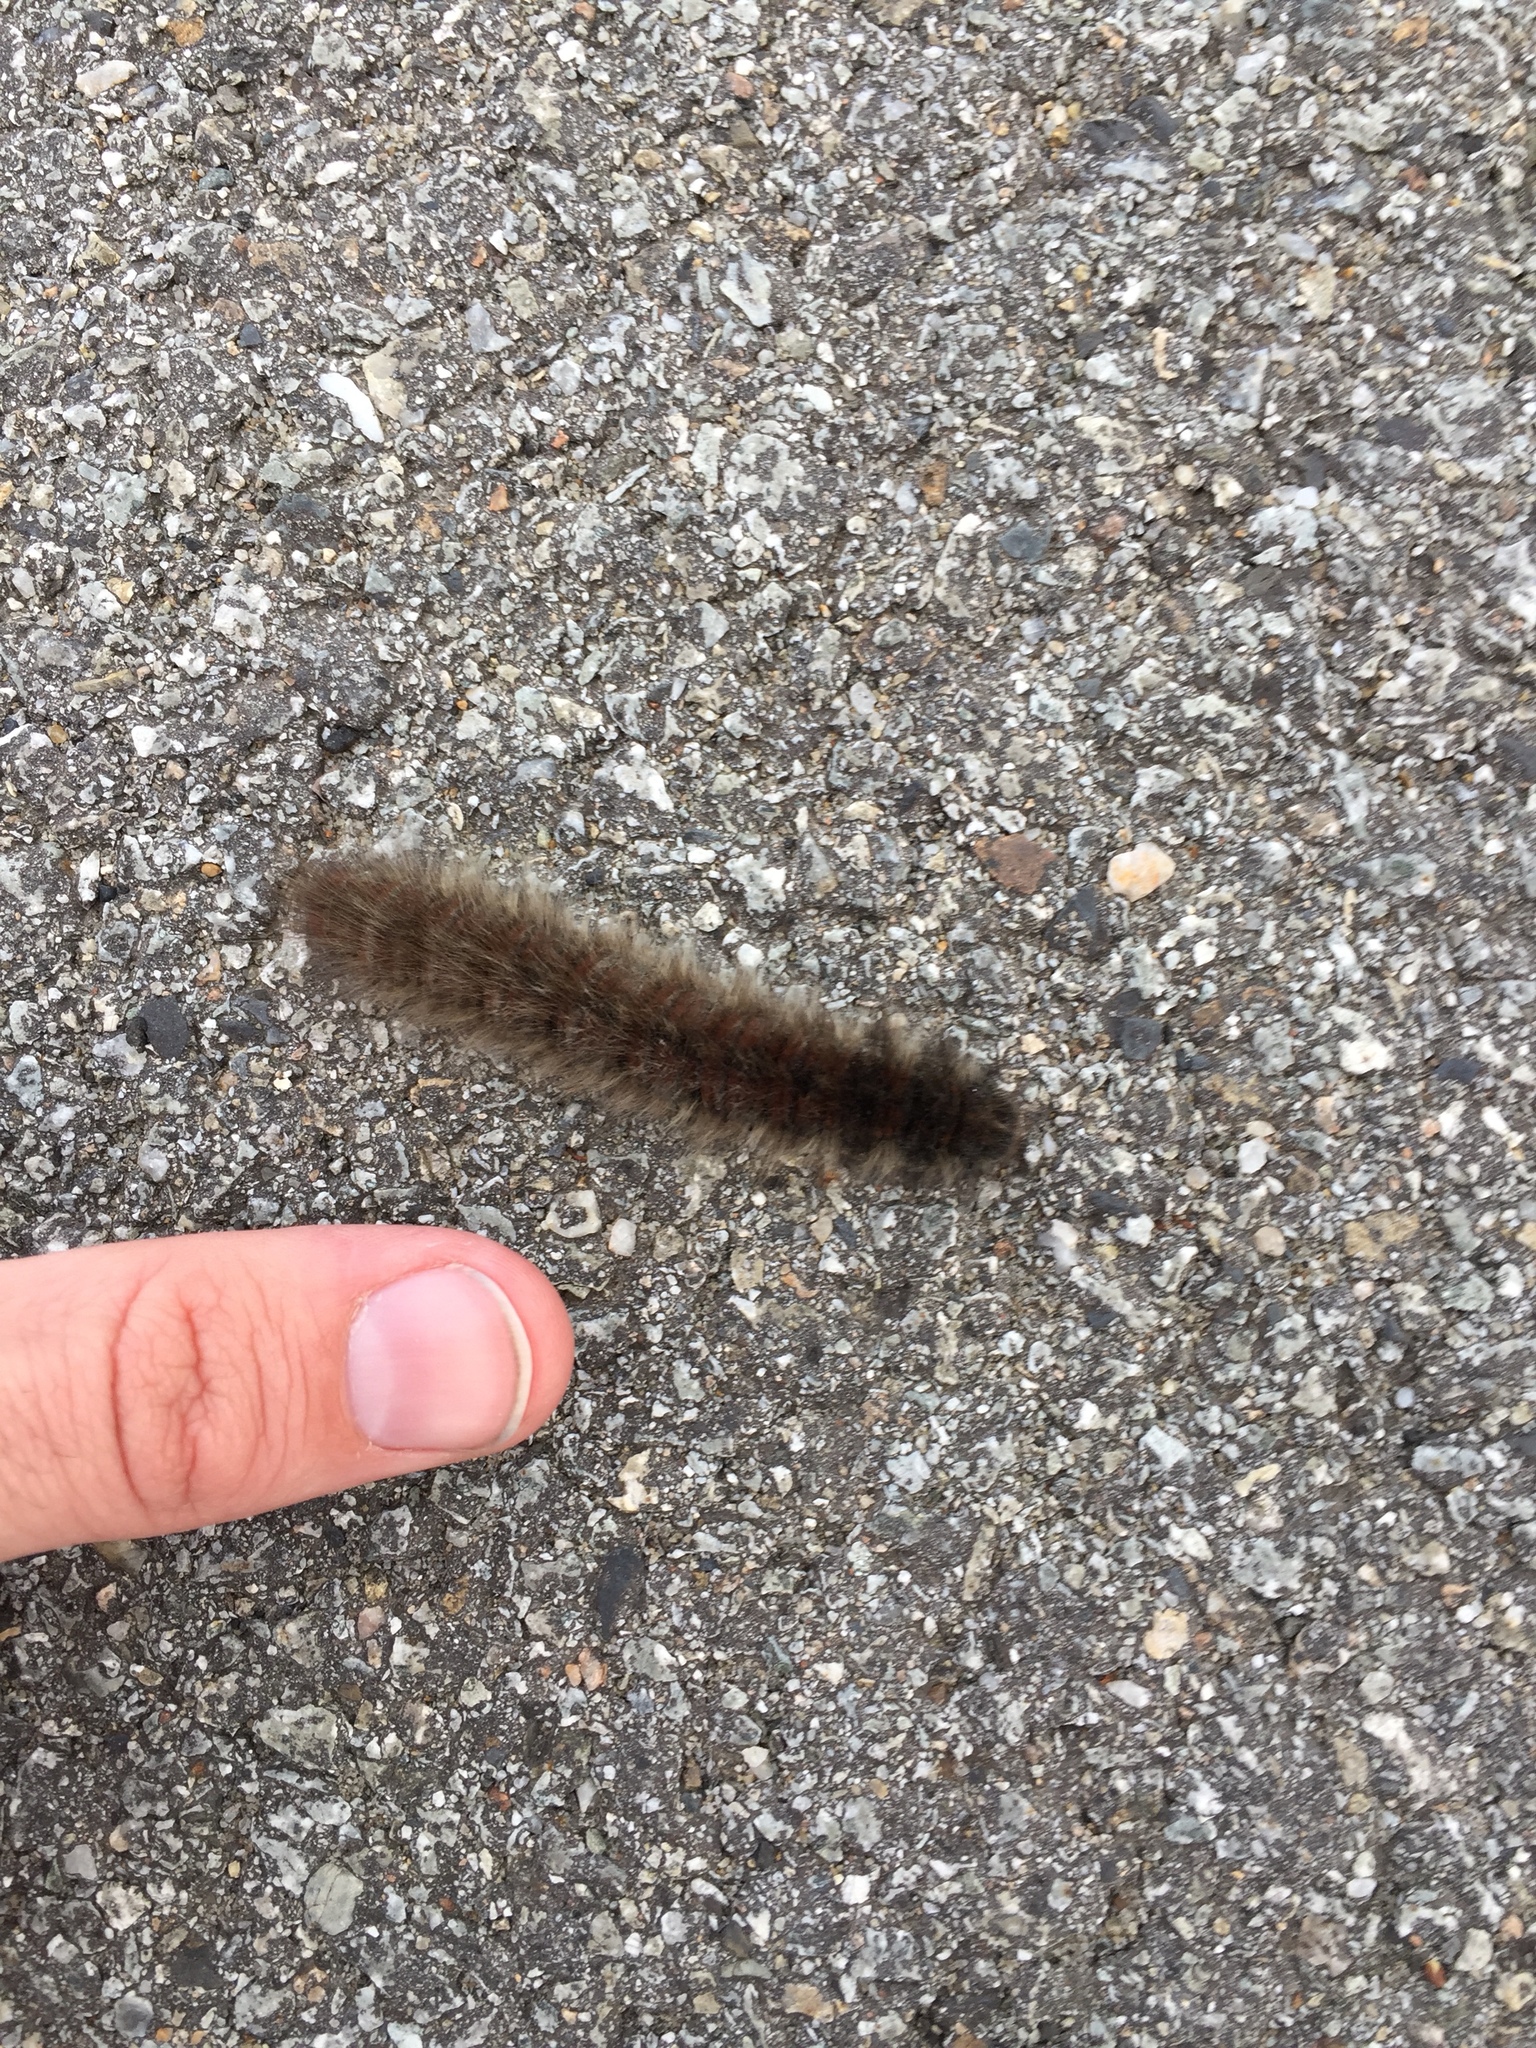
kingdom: Animalia
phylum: Arthropoda
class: Insecta
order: Lepidoptera
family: Lasiocampidae
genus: Macrothylacia
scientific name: Macrothylacia rubi
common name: Fox moth
